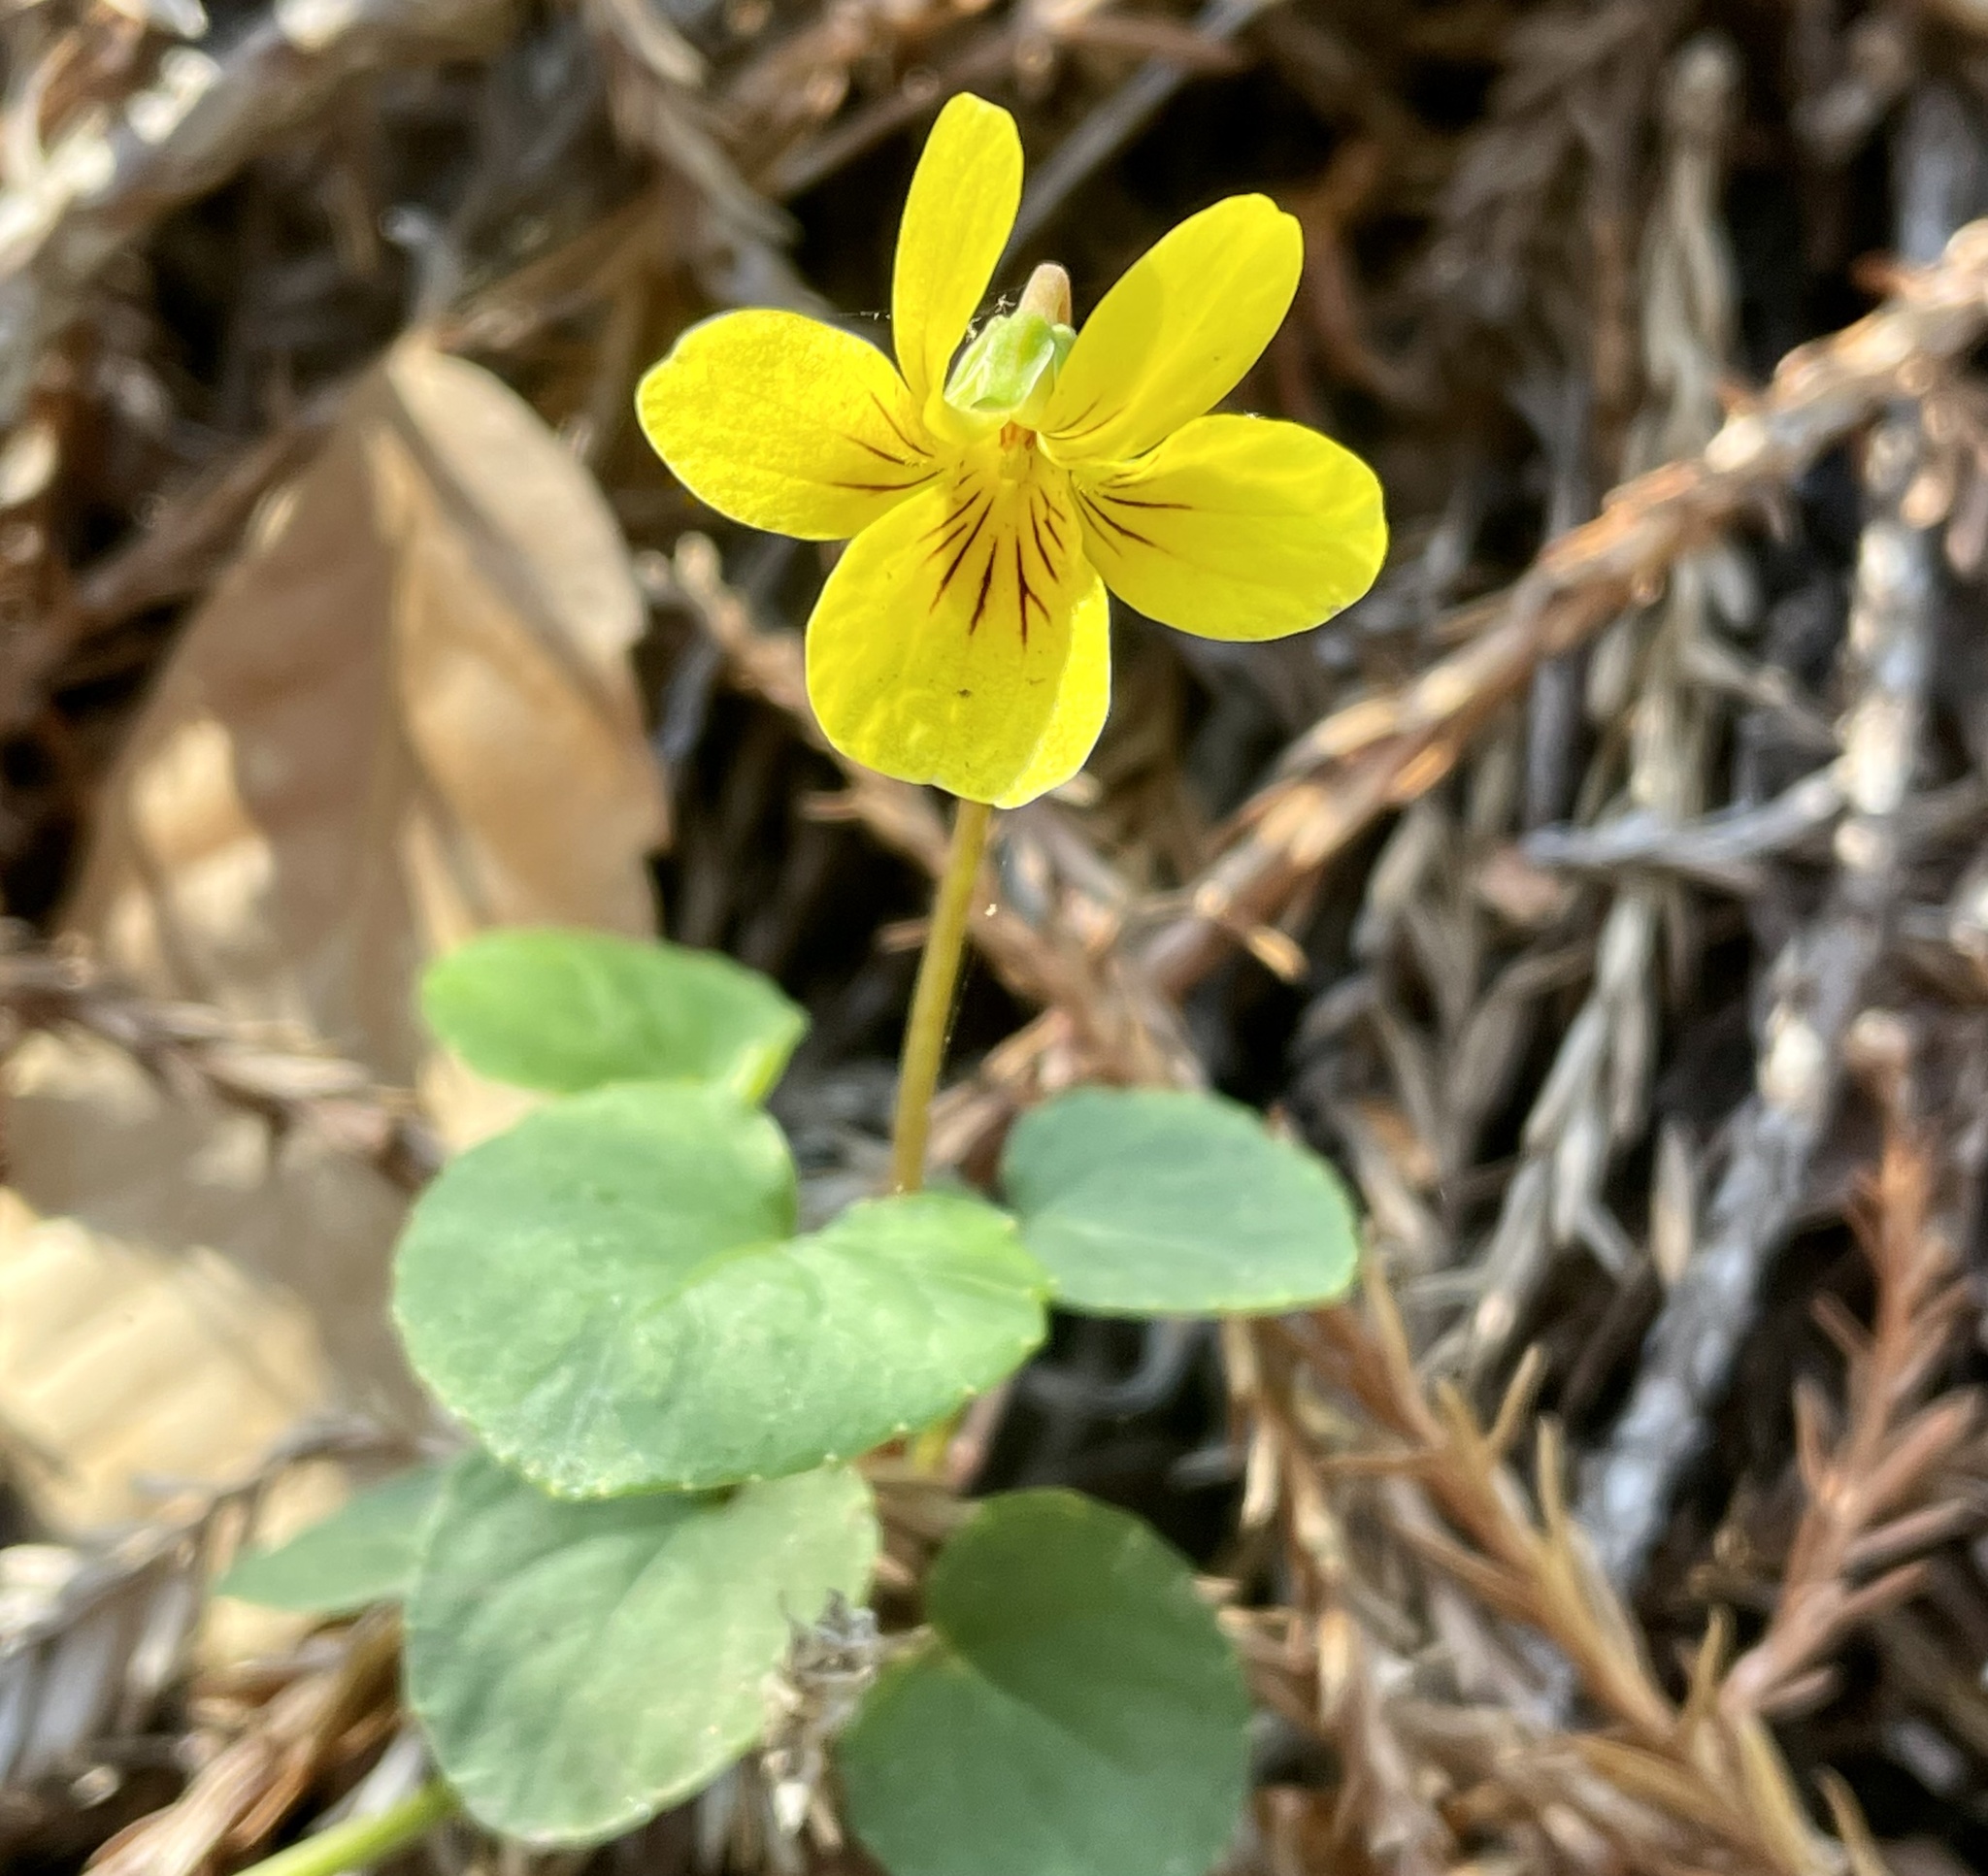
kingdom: Plantae
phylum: Tracheophyta
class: Magnoliopsida
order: Malpighiales
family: Violaceae
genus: Viola
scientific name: Viola sempervirens
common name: Evergreen violet
